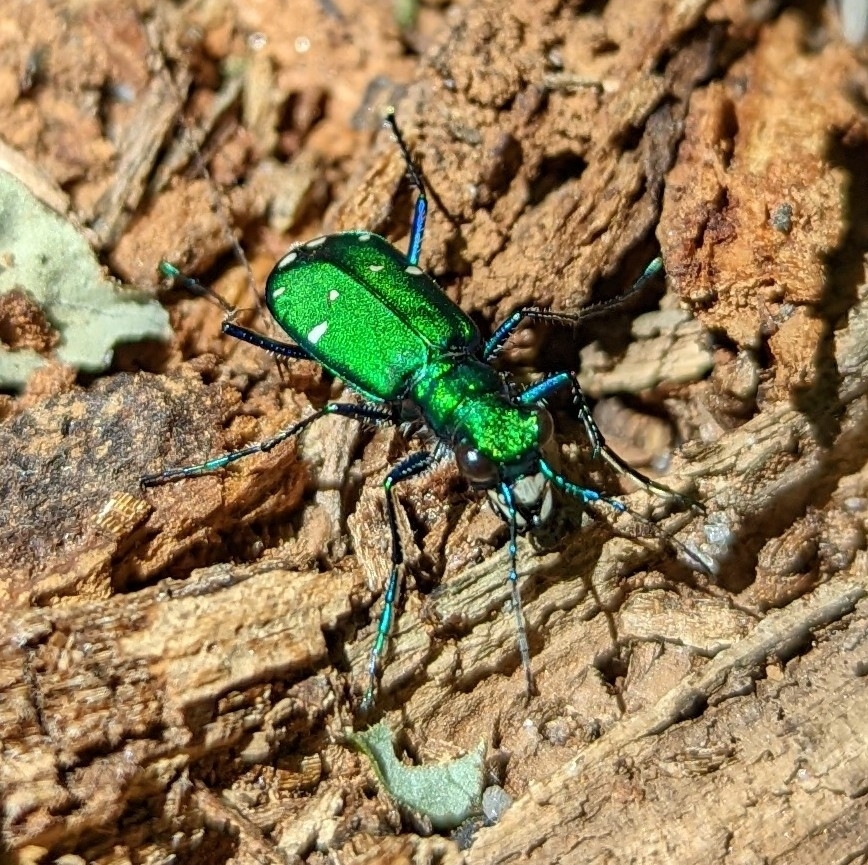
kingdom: Animalia
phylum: Arthropoda
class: Insecta
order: Coleoptera
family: Carabidae
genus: Cicindela
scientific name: Cicindela sexguttata
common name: Six-spotted tiger beetle
